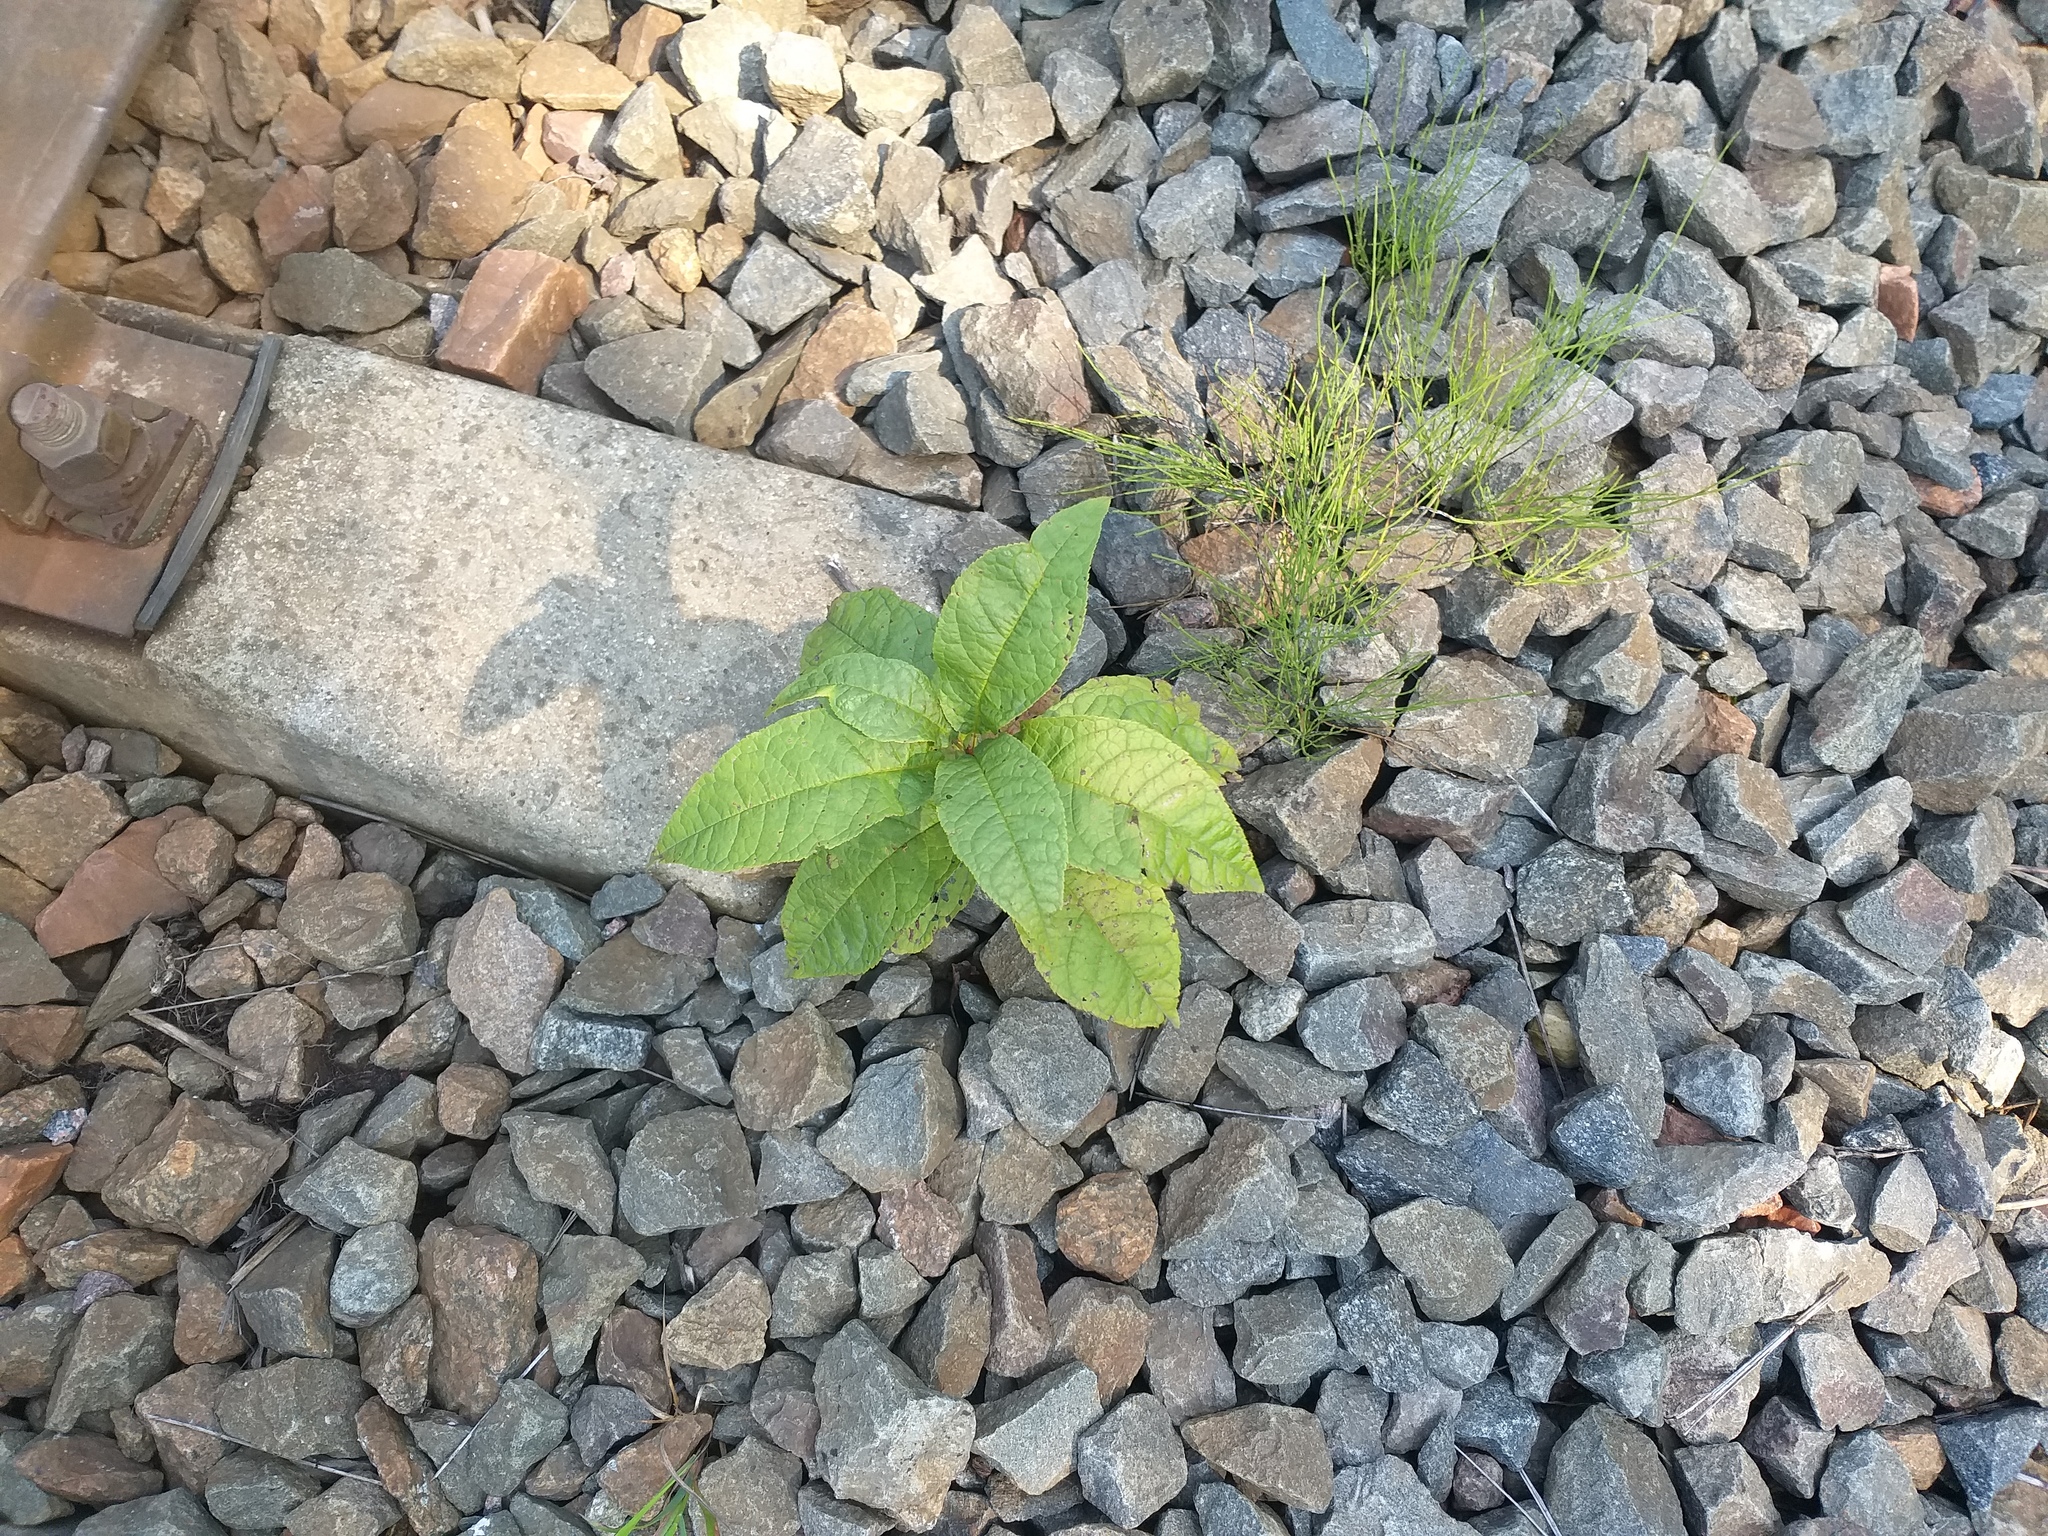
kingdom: Plantae
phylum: Tracheophyta
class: Magnoliopsida
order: Rosales
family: Rosaceae
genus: Prunus
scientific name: Prunus padus
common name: Bird cherry
